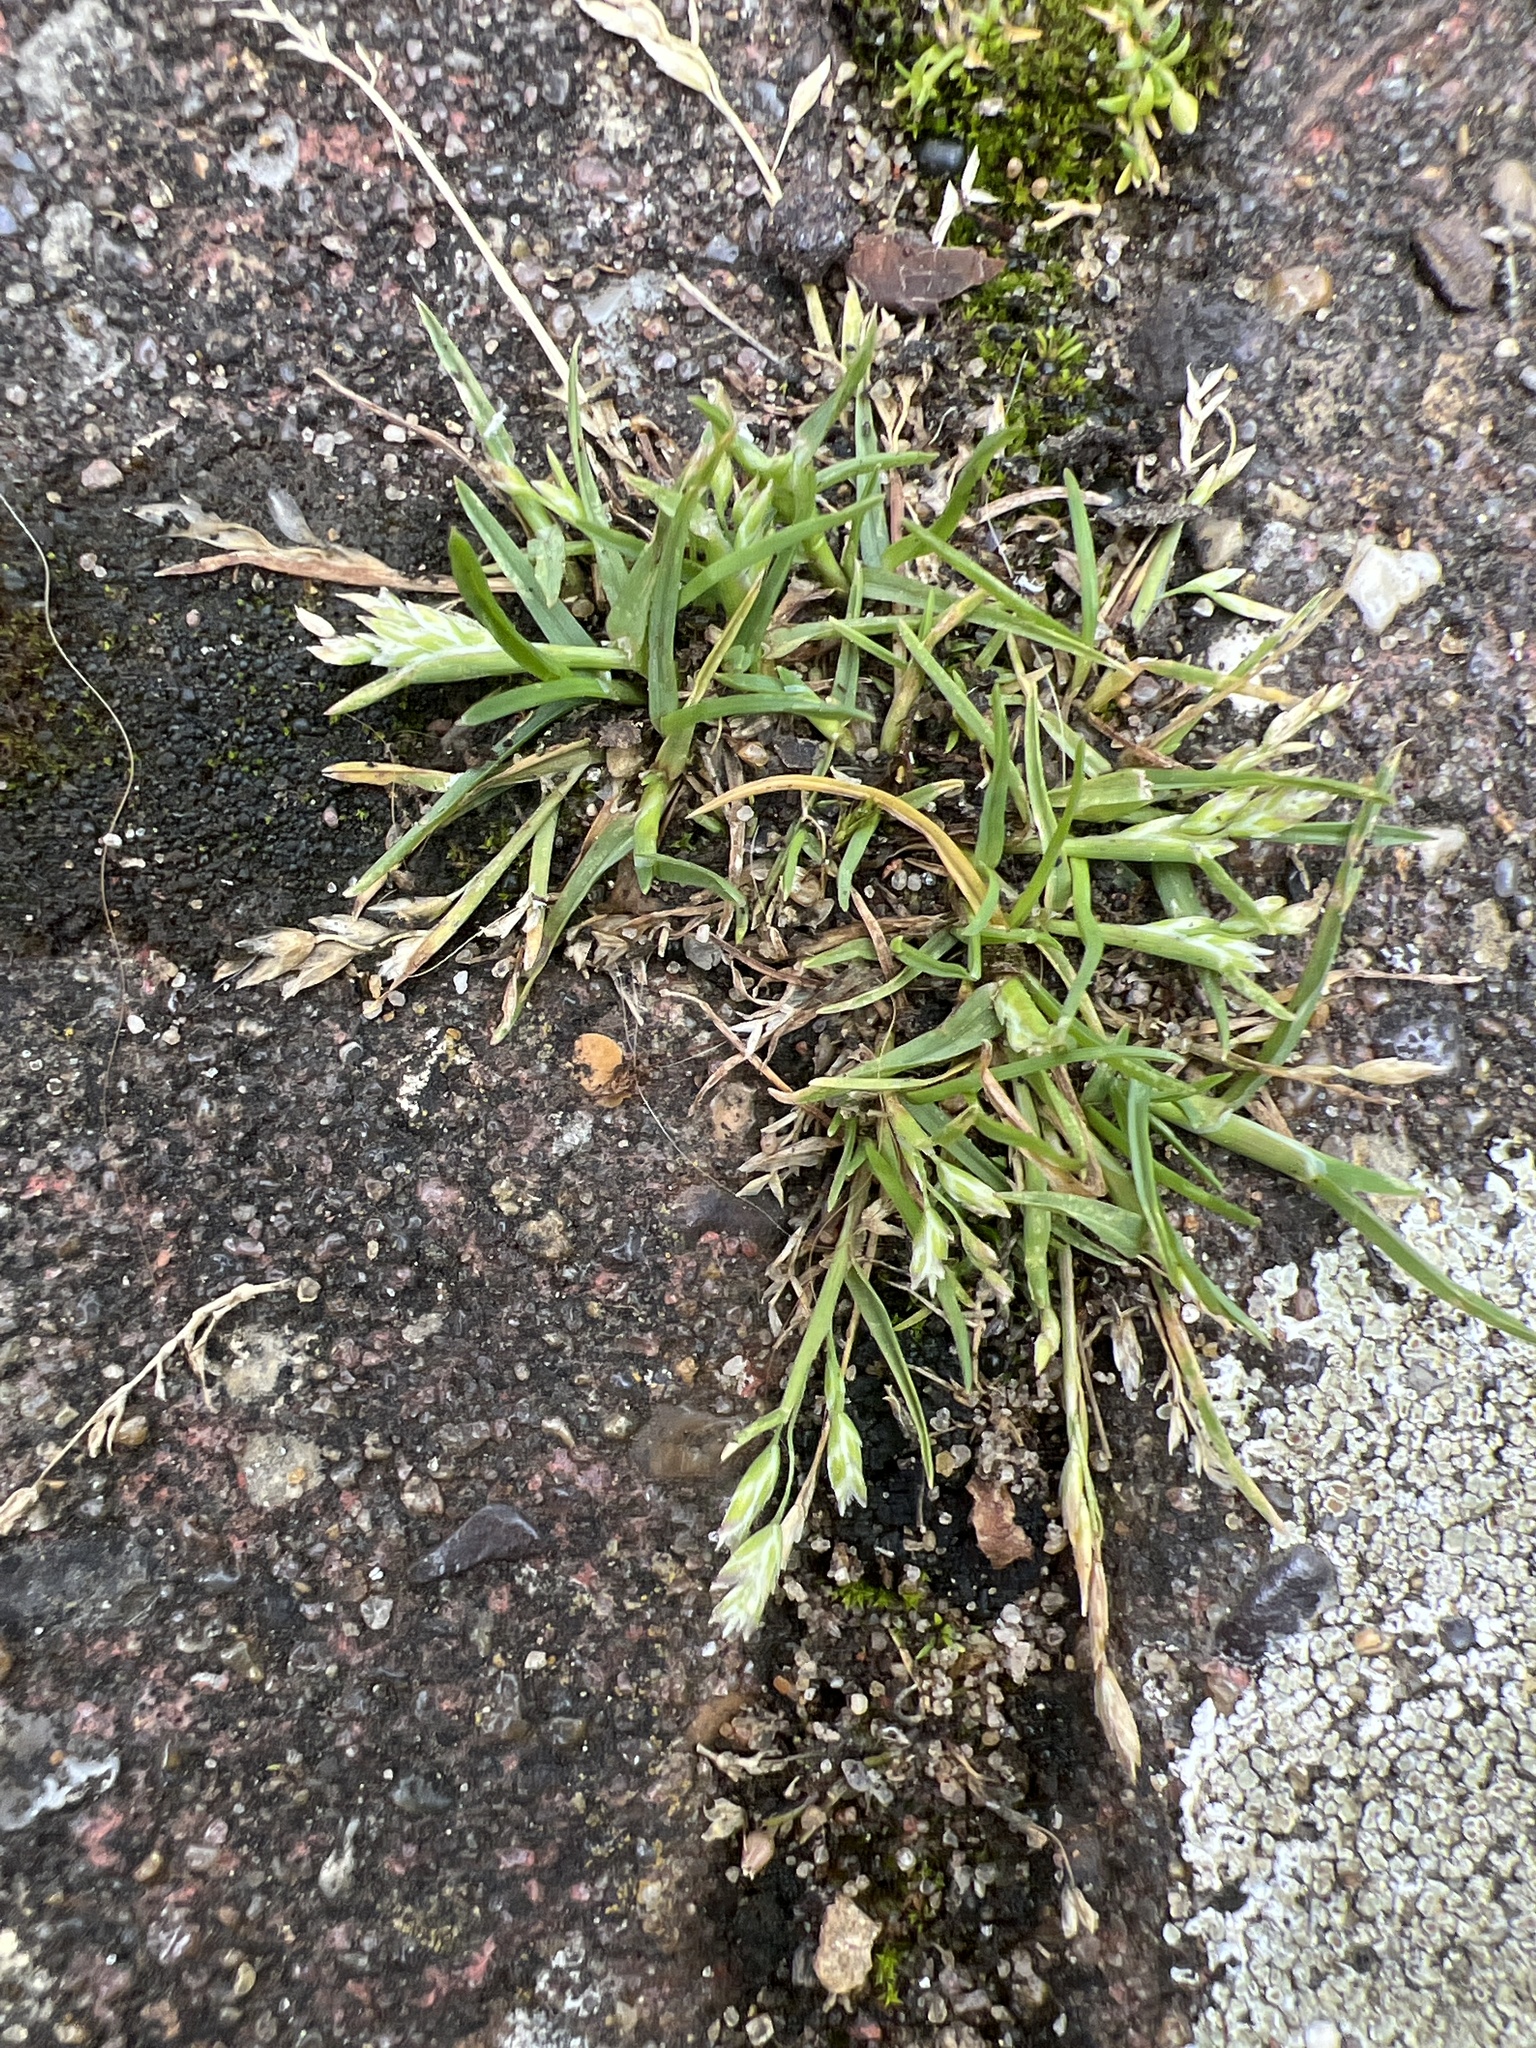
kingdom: Plantae
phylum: Tracheophyta
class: Liliopsida
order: Poales
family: Poaceae
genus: Poa
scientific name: Poa annua
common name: Annual bluegrass
